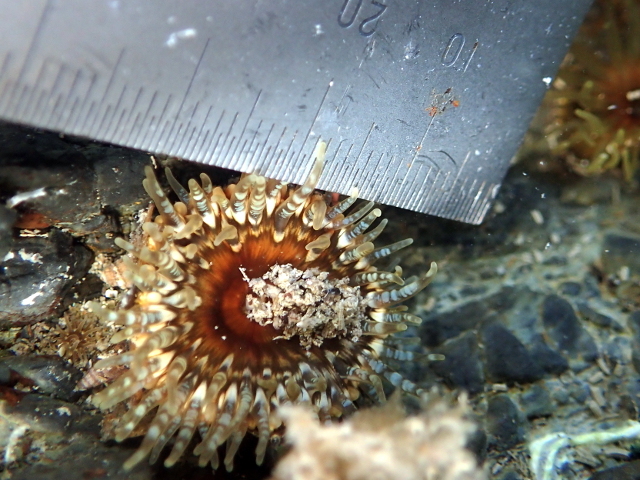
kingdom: Animalia
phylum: Cnidaria
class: Anthozoa
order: Actiniaria
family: Actiniidae
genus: Oulactis
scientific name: Oulactis muscosa
